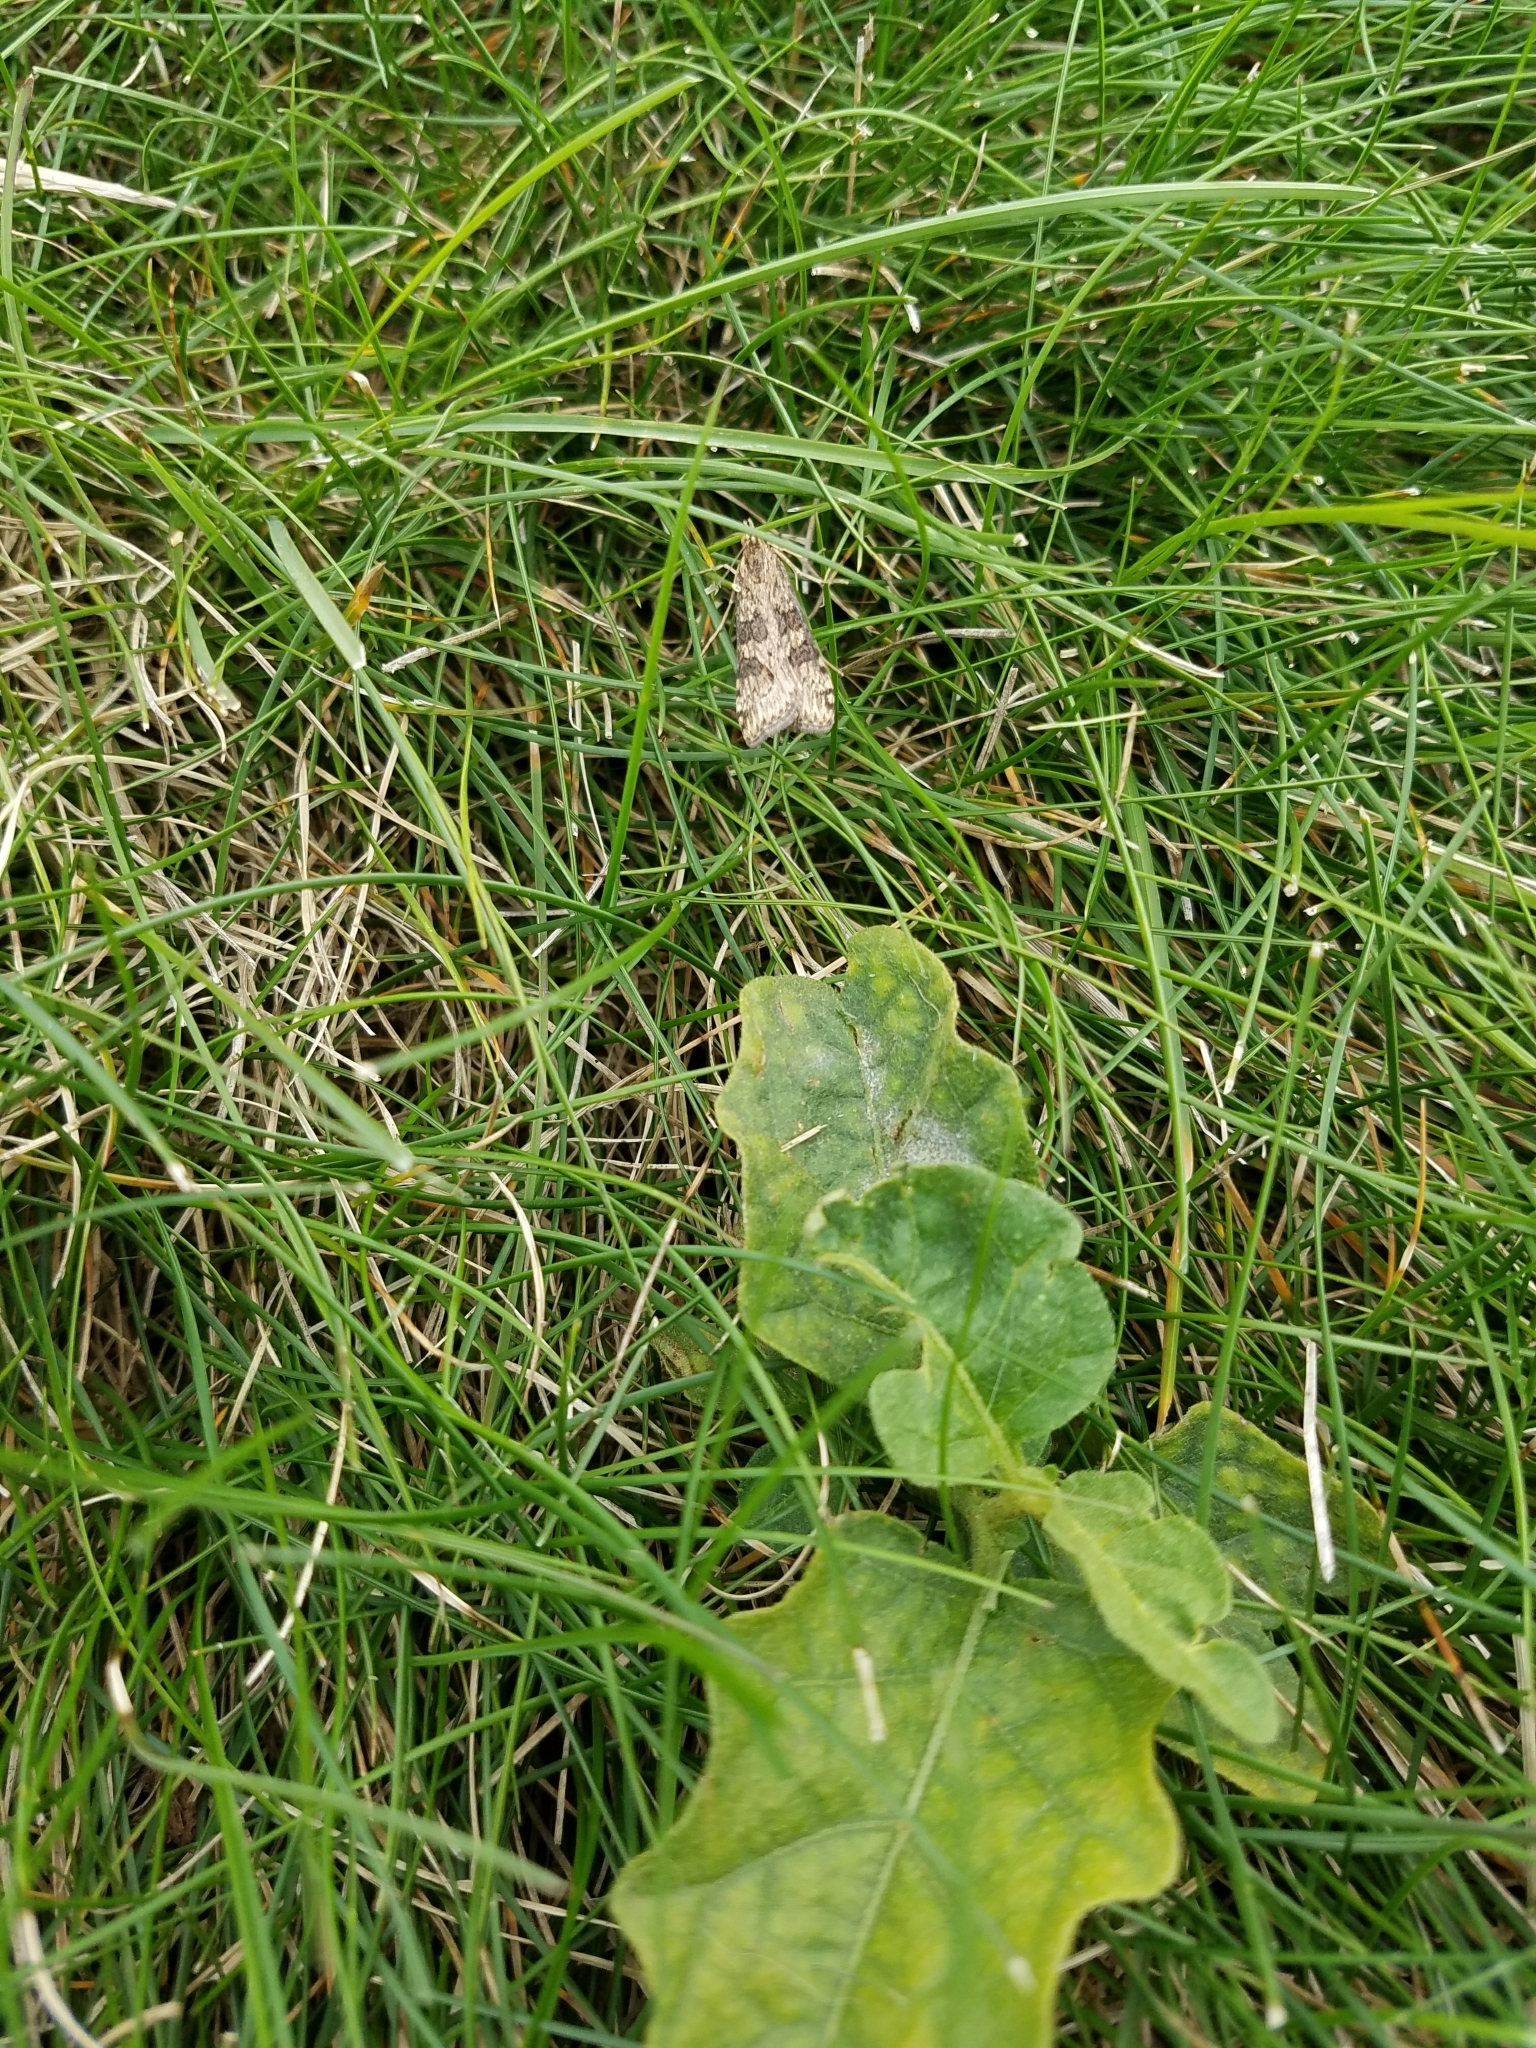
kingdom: Animalia
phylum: Arthropoda
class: Insecta
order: Lepidoptera
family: Crambidae
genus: Nomophila
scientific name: Nomophila nearctica
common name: American rush veneer
